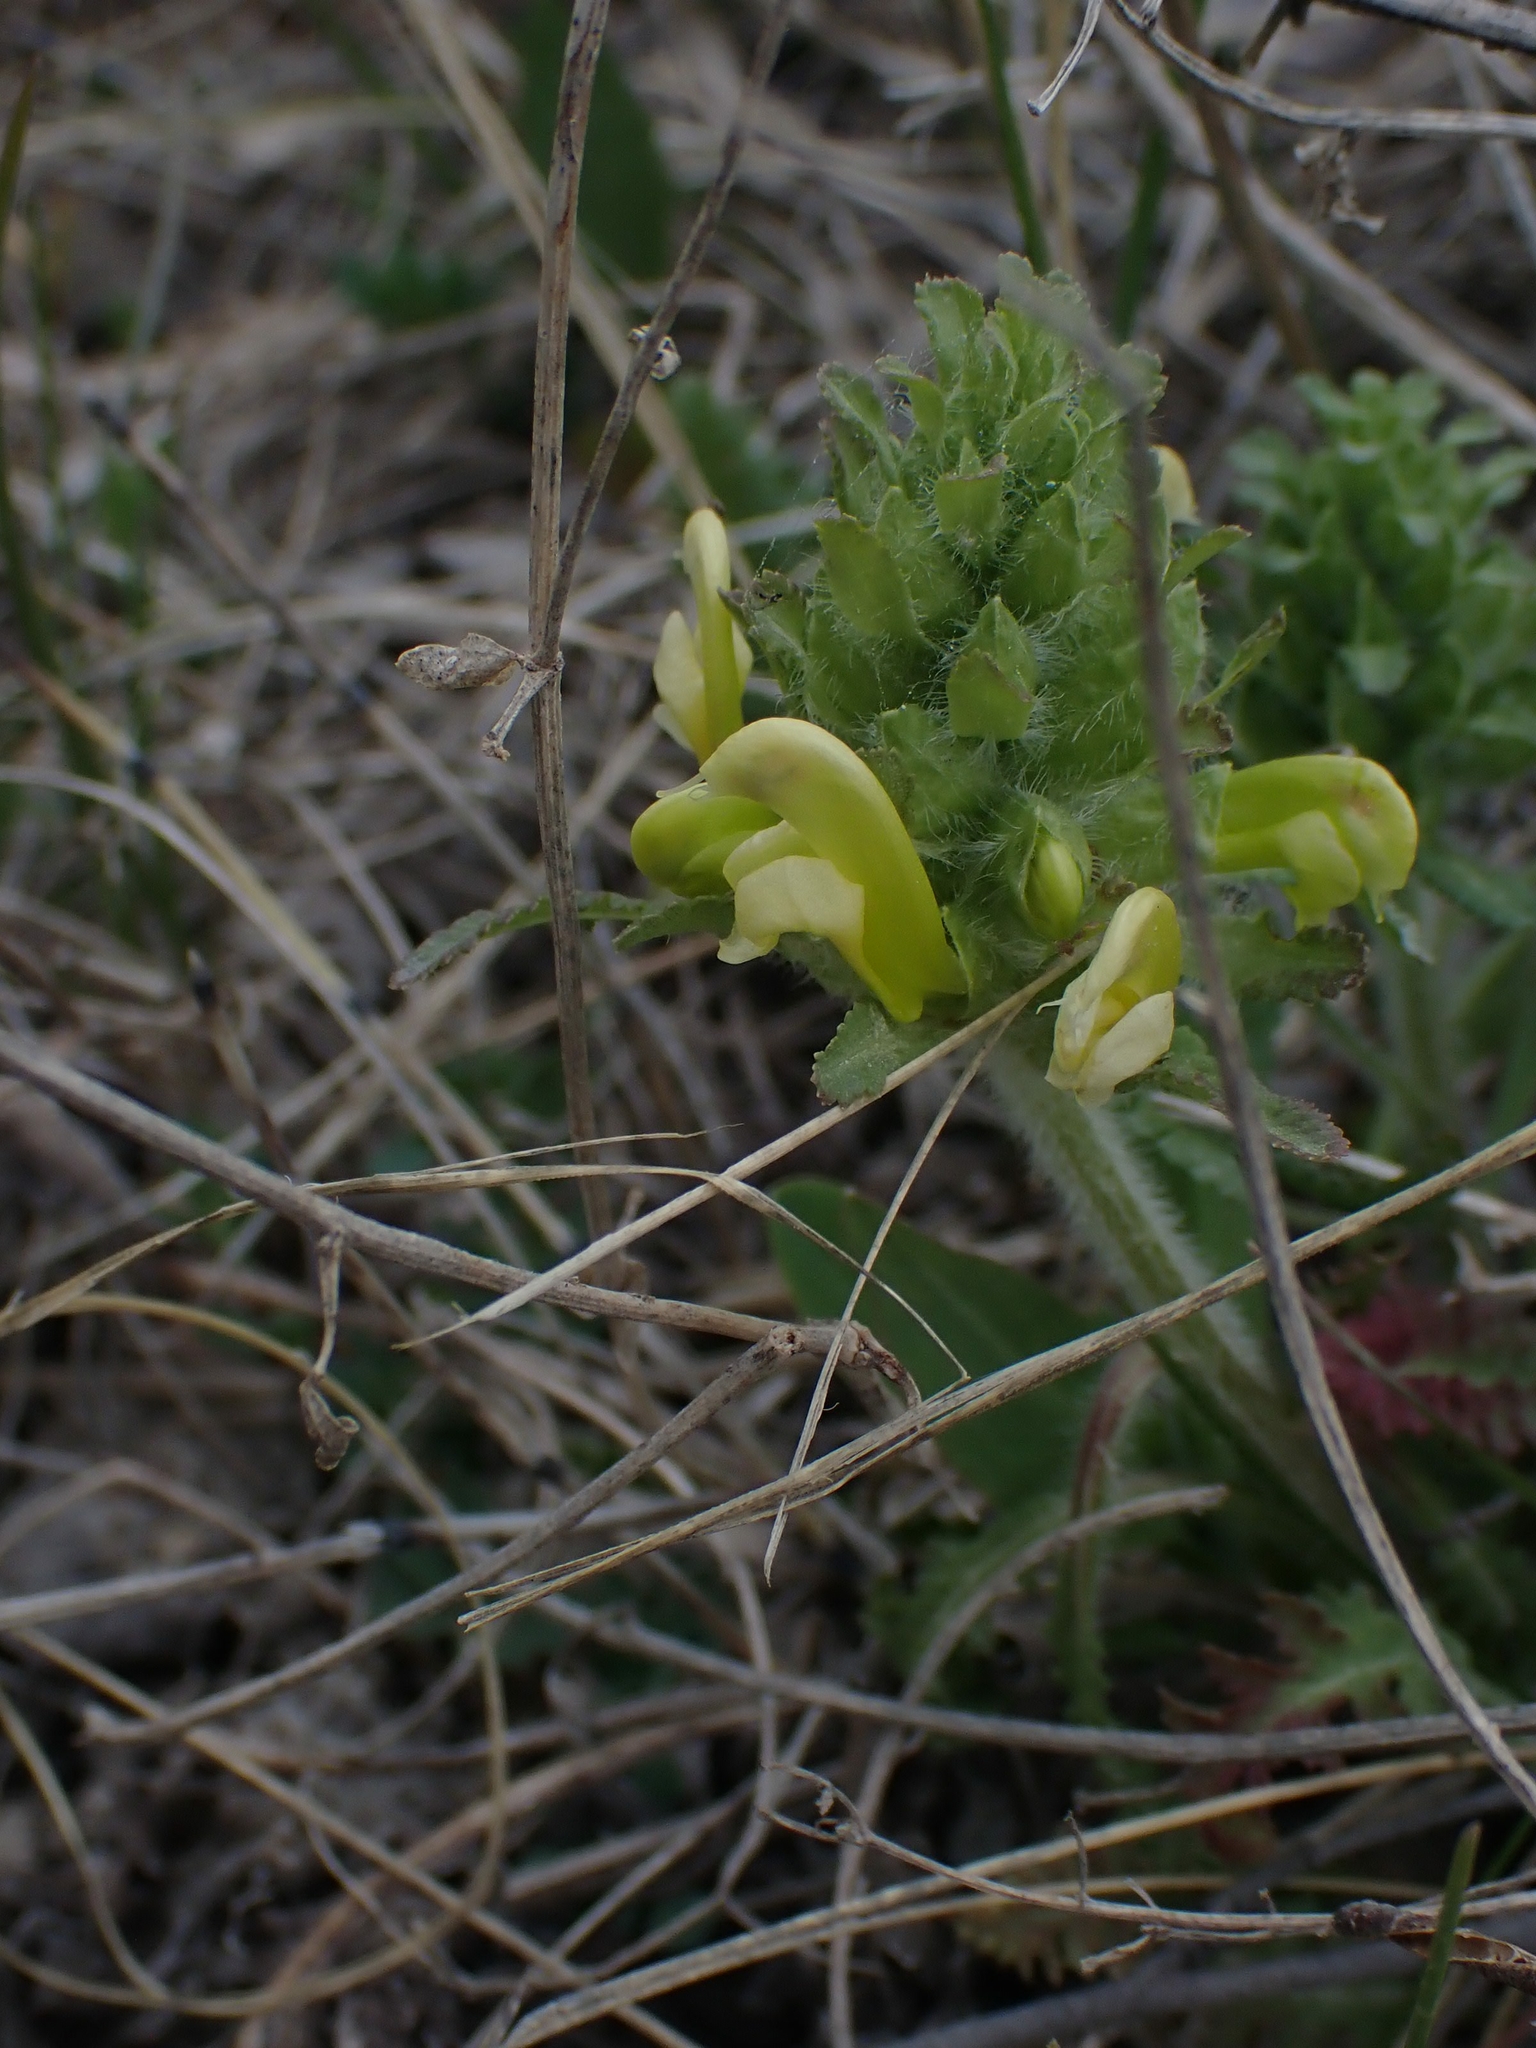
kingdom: Plantae
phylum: Tracheophyta
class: Magnoliopsida
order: Lamiales
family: Orobanchaceae
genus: Pedicularis
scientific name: Pedicularis canadensis
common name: Early lousewort
